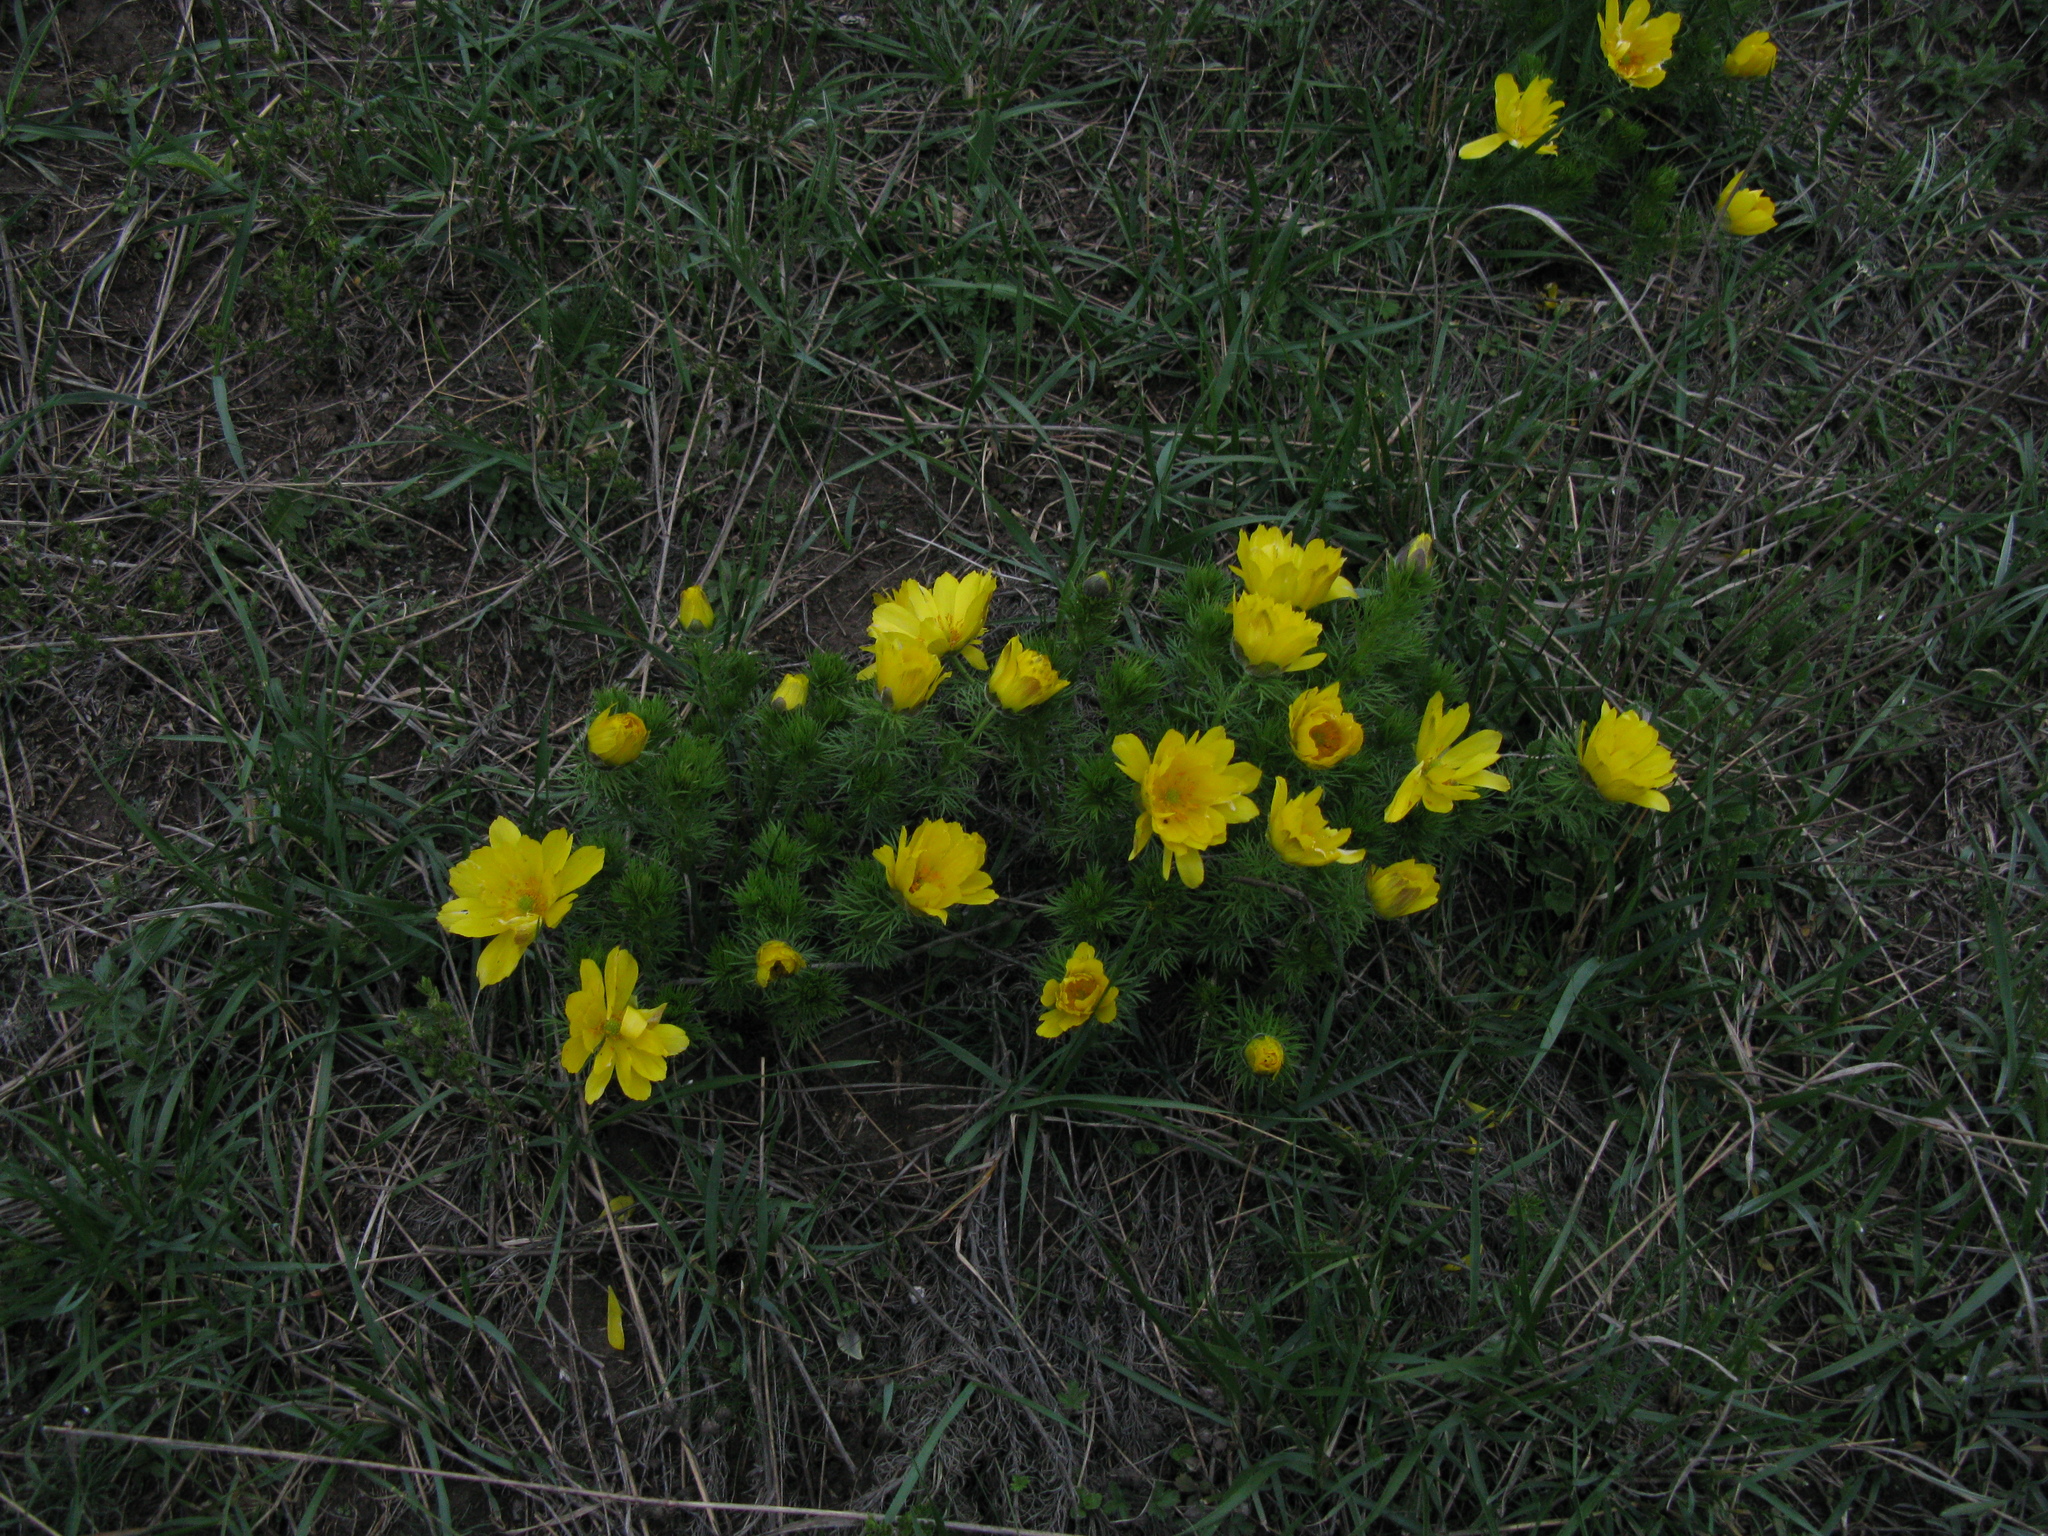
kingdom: Plantae
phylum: Tracheophyta
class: Magnoliopsida
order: Ranunculales
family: Ranunculaceae
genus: Adonis
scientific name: Adonis vernalis
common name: Yellow pheasants-eye
